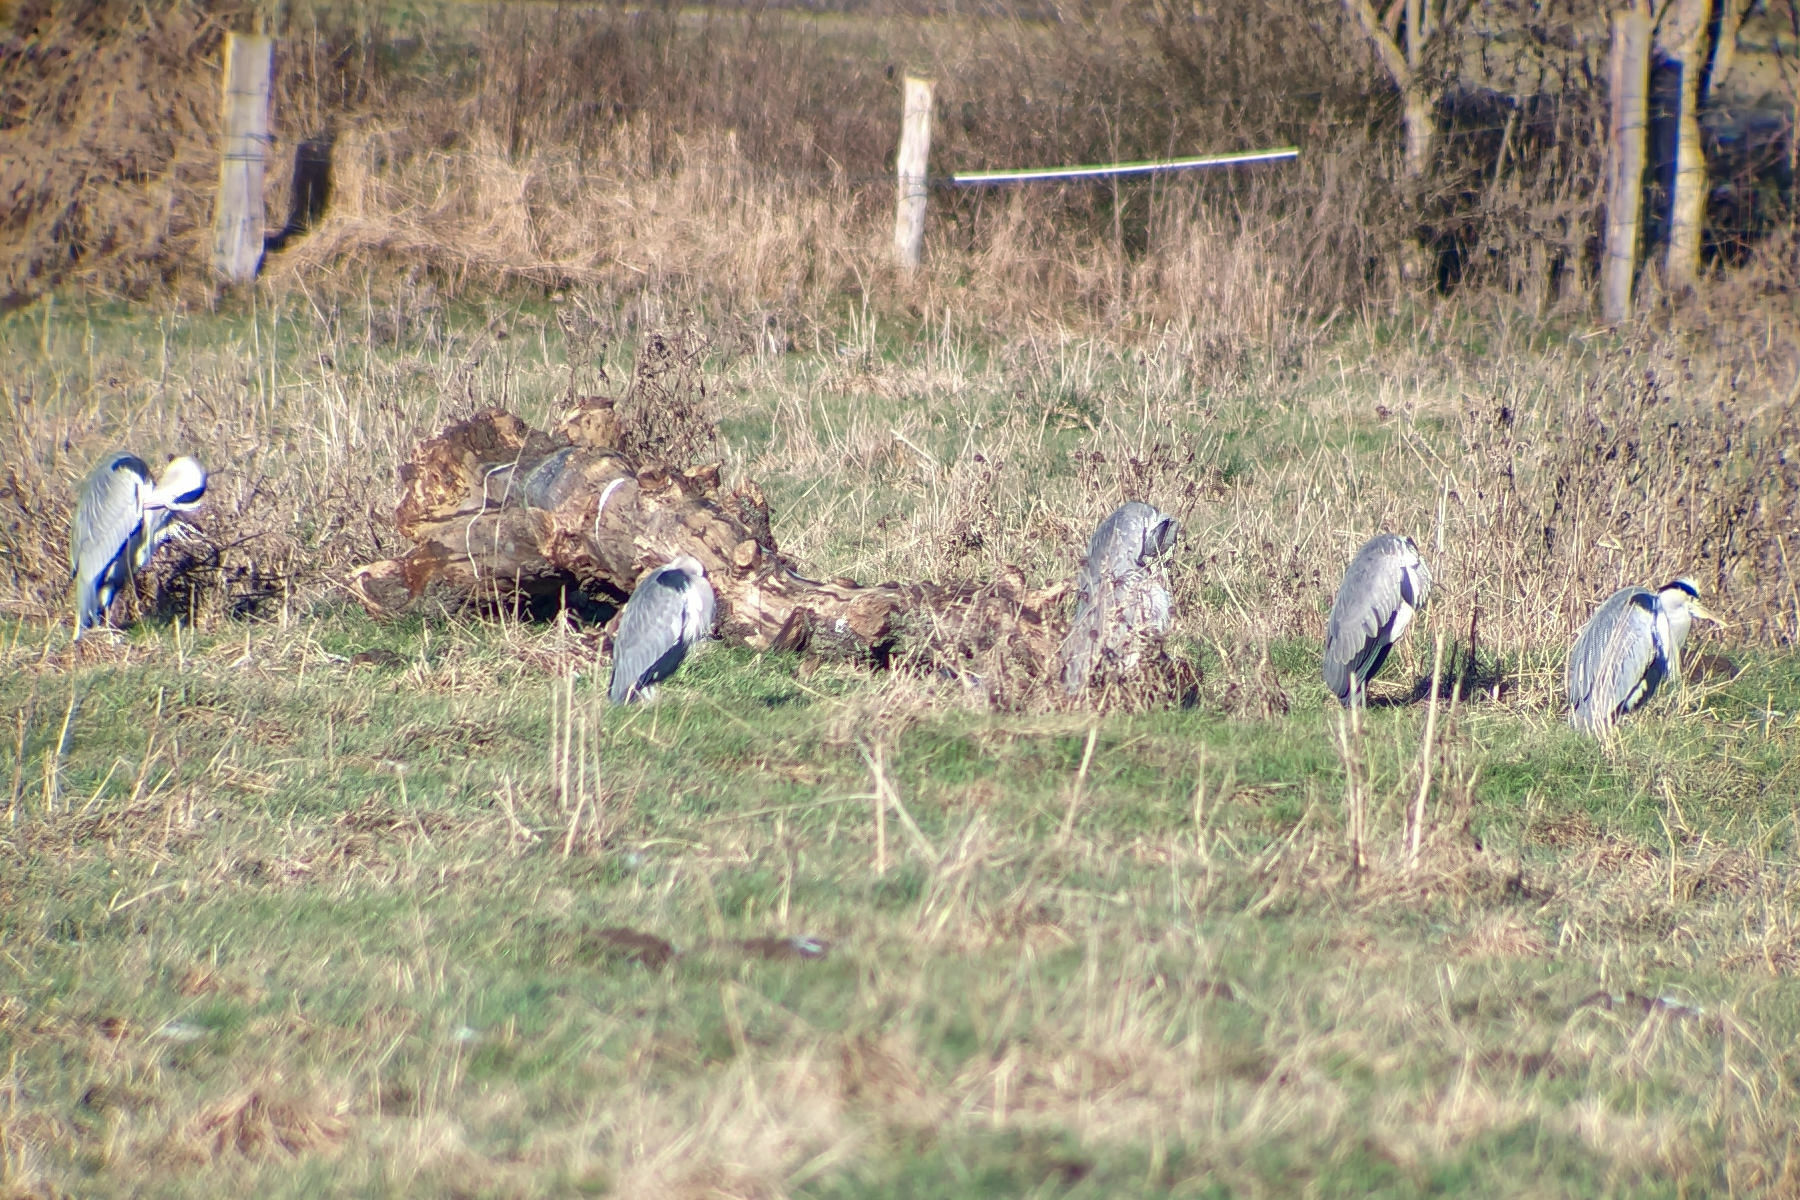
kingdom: Animalia
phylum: Chordata
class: Aves
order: Pelecaniformes
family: Ardeidae
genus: Ardea
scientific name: Ardea cinerea
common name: Grey heron
